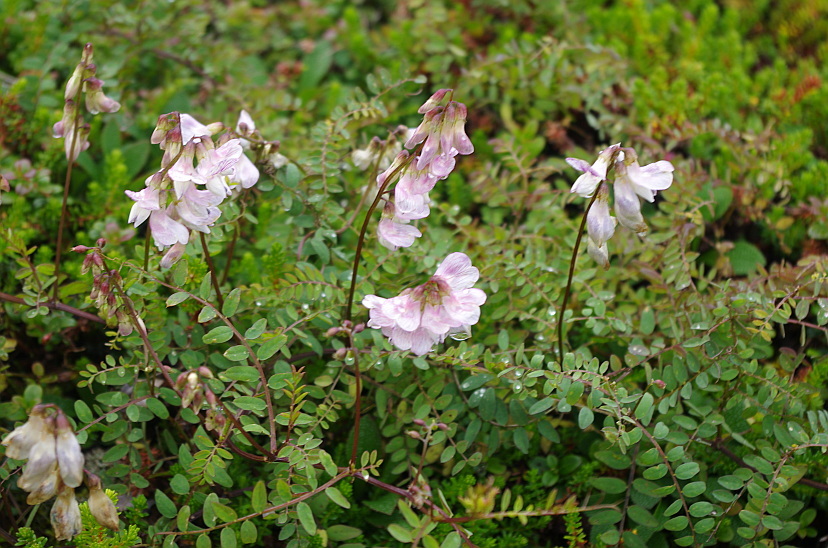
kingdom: Plantae
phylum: Tracheophyta
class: Magnoliopsida
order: Fabales
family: Fabaceae
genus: Vicia
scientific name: Vicia sylvatica
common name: Wood vetch
